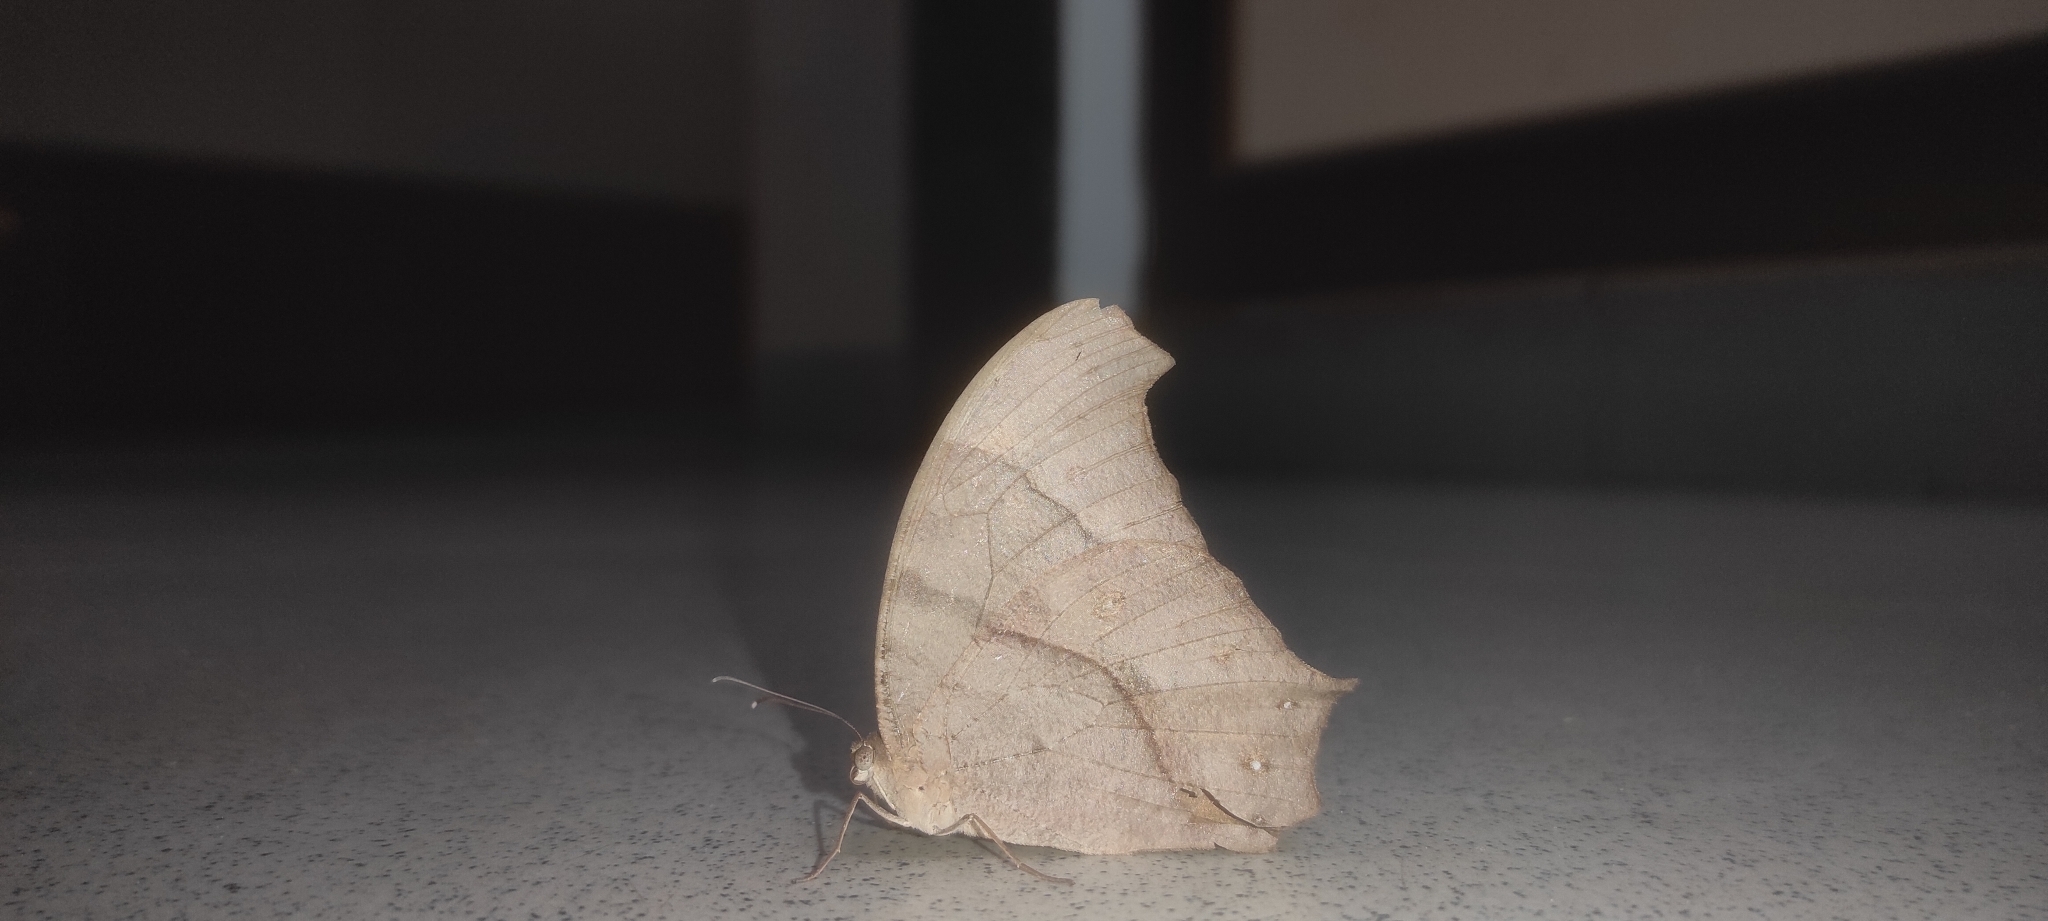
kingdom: Animalia
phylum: Arthropoda
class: Insecta
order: Lepidoptera
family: Nymphalidae
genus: Melanitis
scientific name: Melanitis leda
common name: Twilight brown
